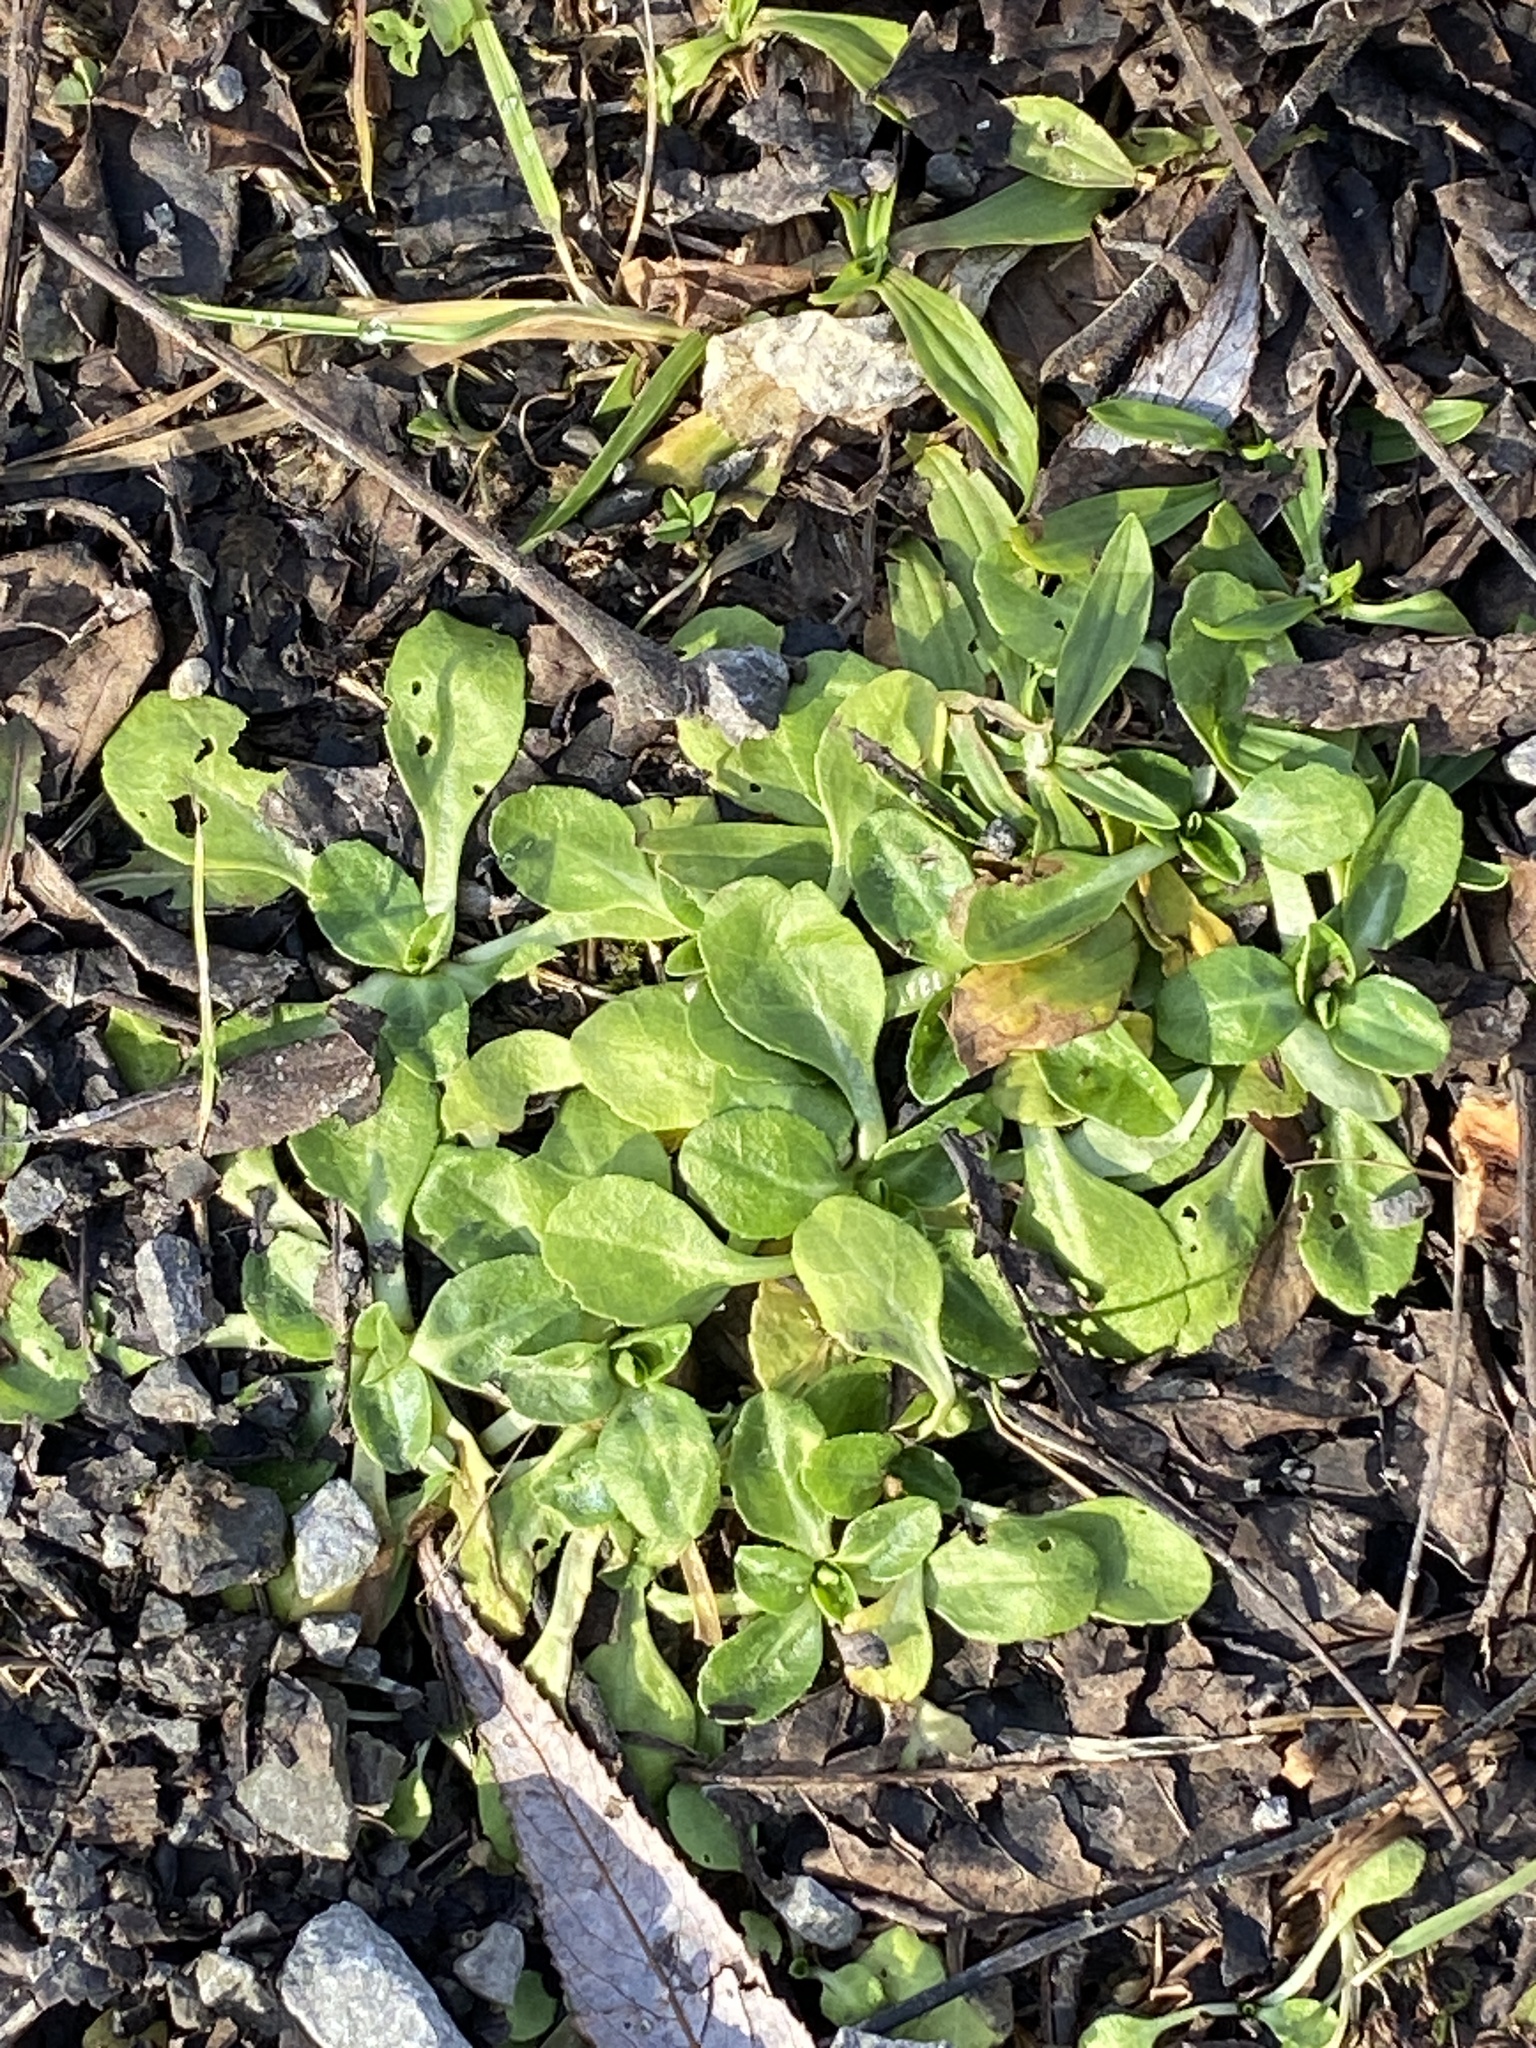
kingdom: Plantae
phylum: Tracheophyta
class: Magnoliopsida
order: Asterales
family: Asteraceae
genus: Bellis
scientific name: Bellis perennis
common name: Lawndaisy
